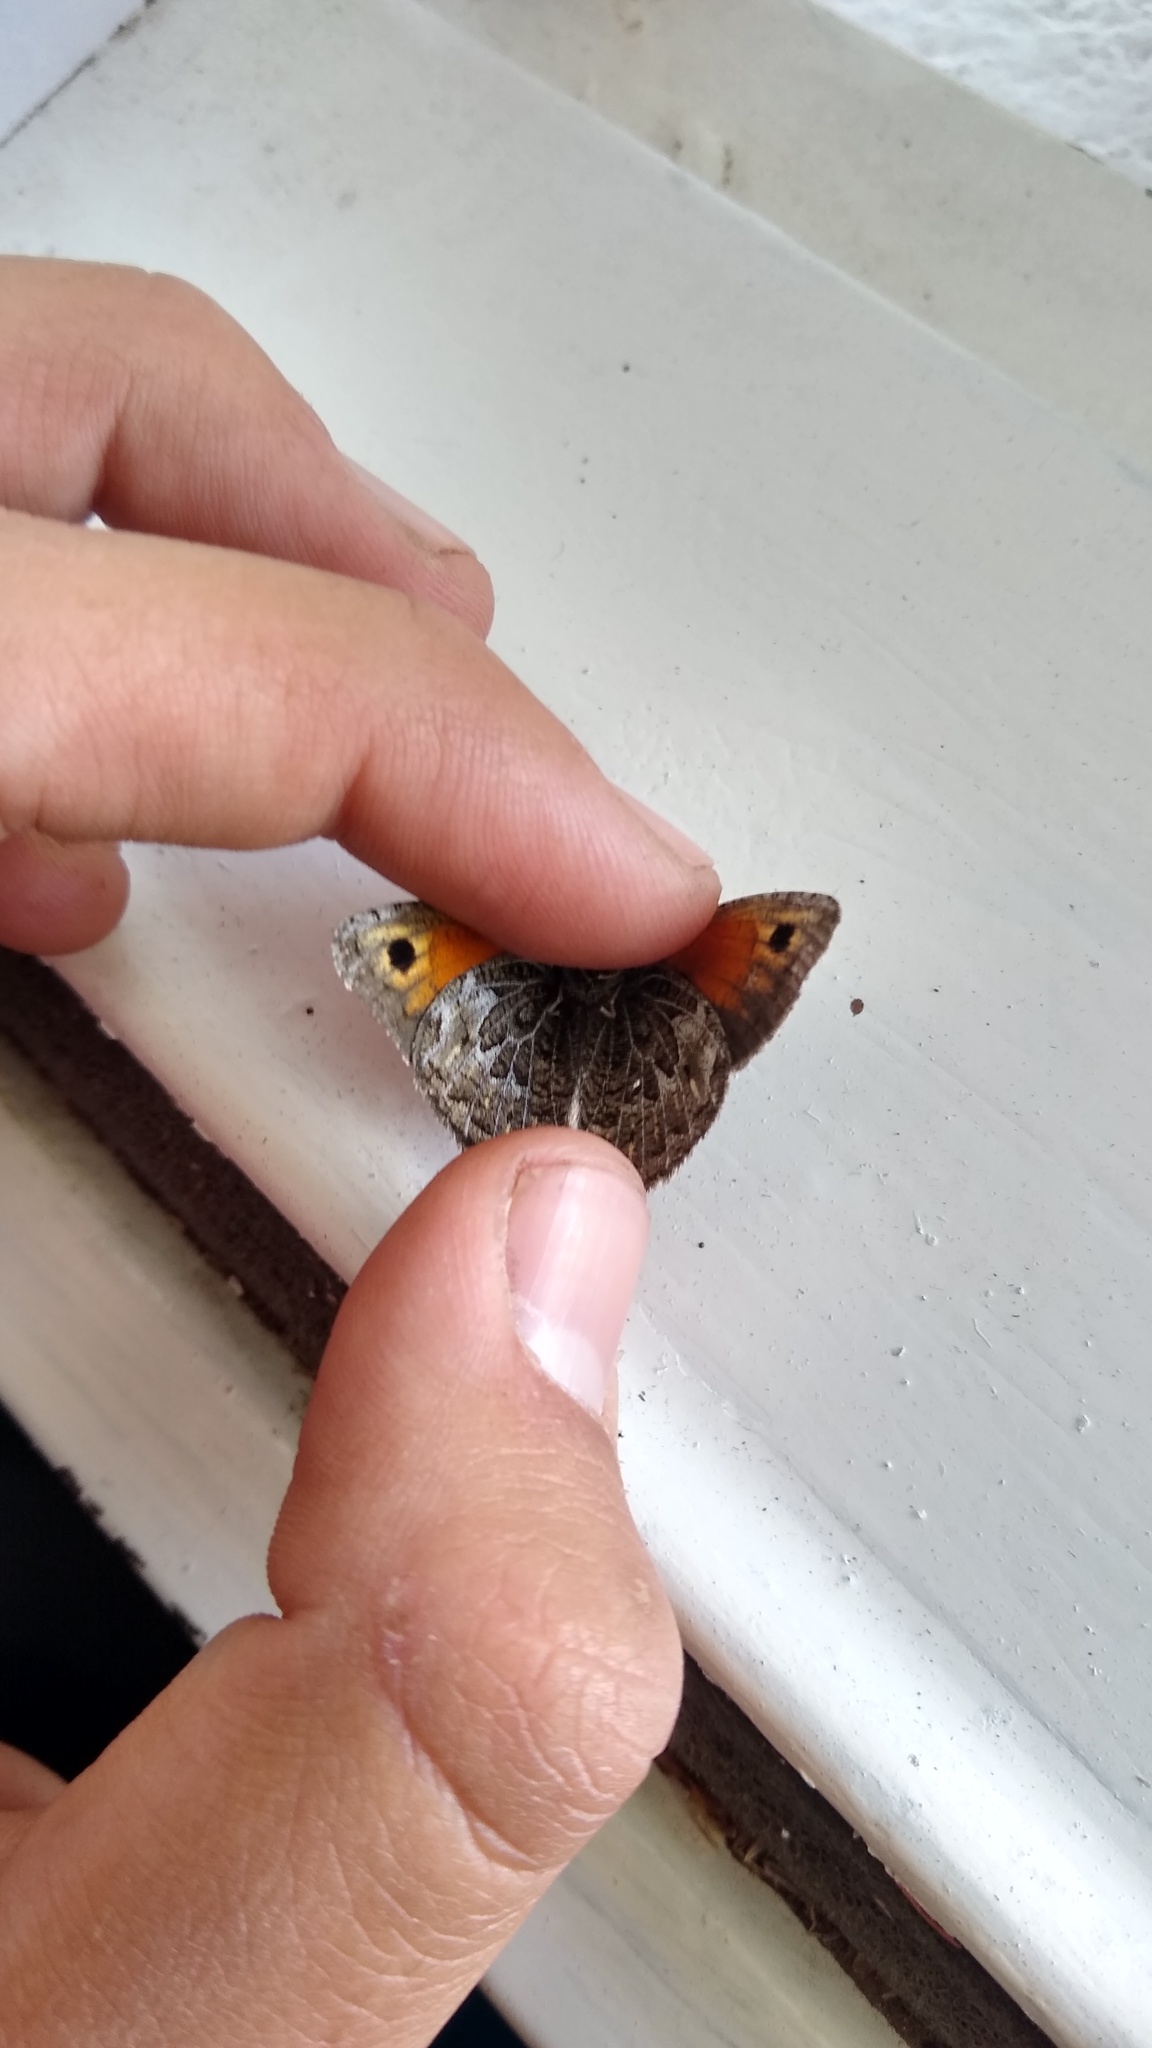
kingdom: Animalia
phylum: Arthropoda
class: Insecta
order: Lepidoptera
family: Nymphalidae
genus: Argyrophorus
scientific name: Argyrophorus
